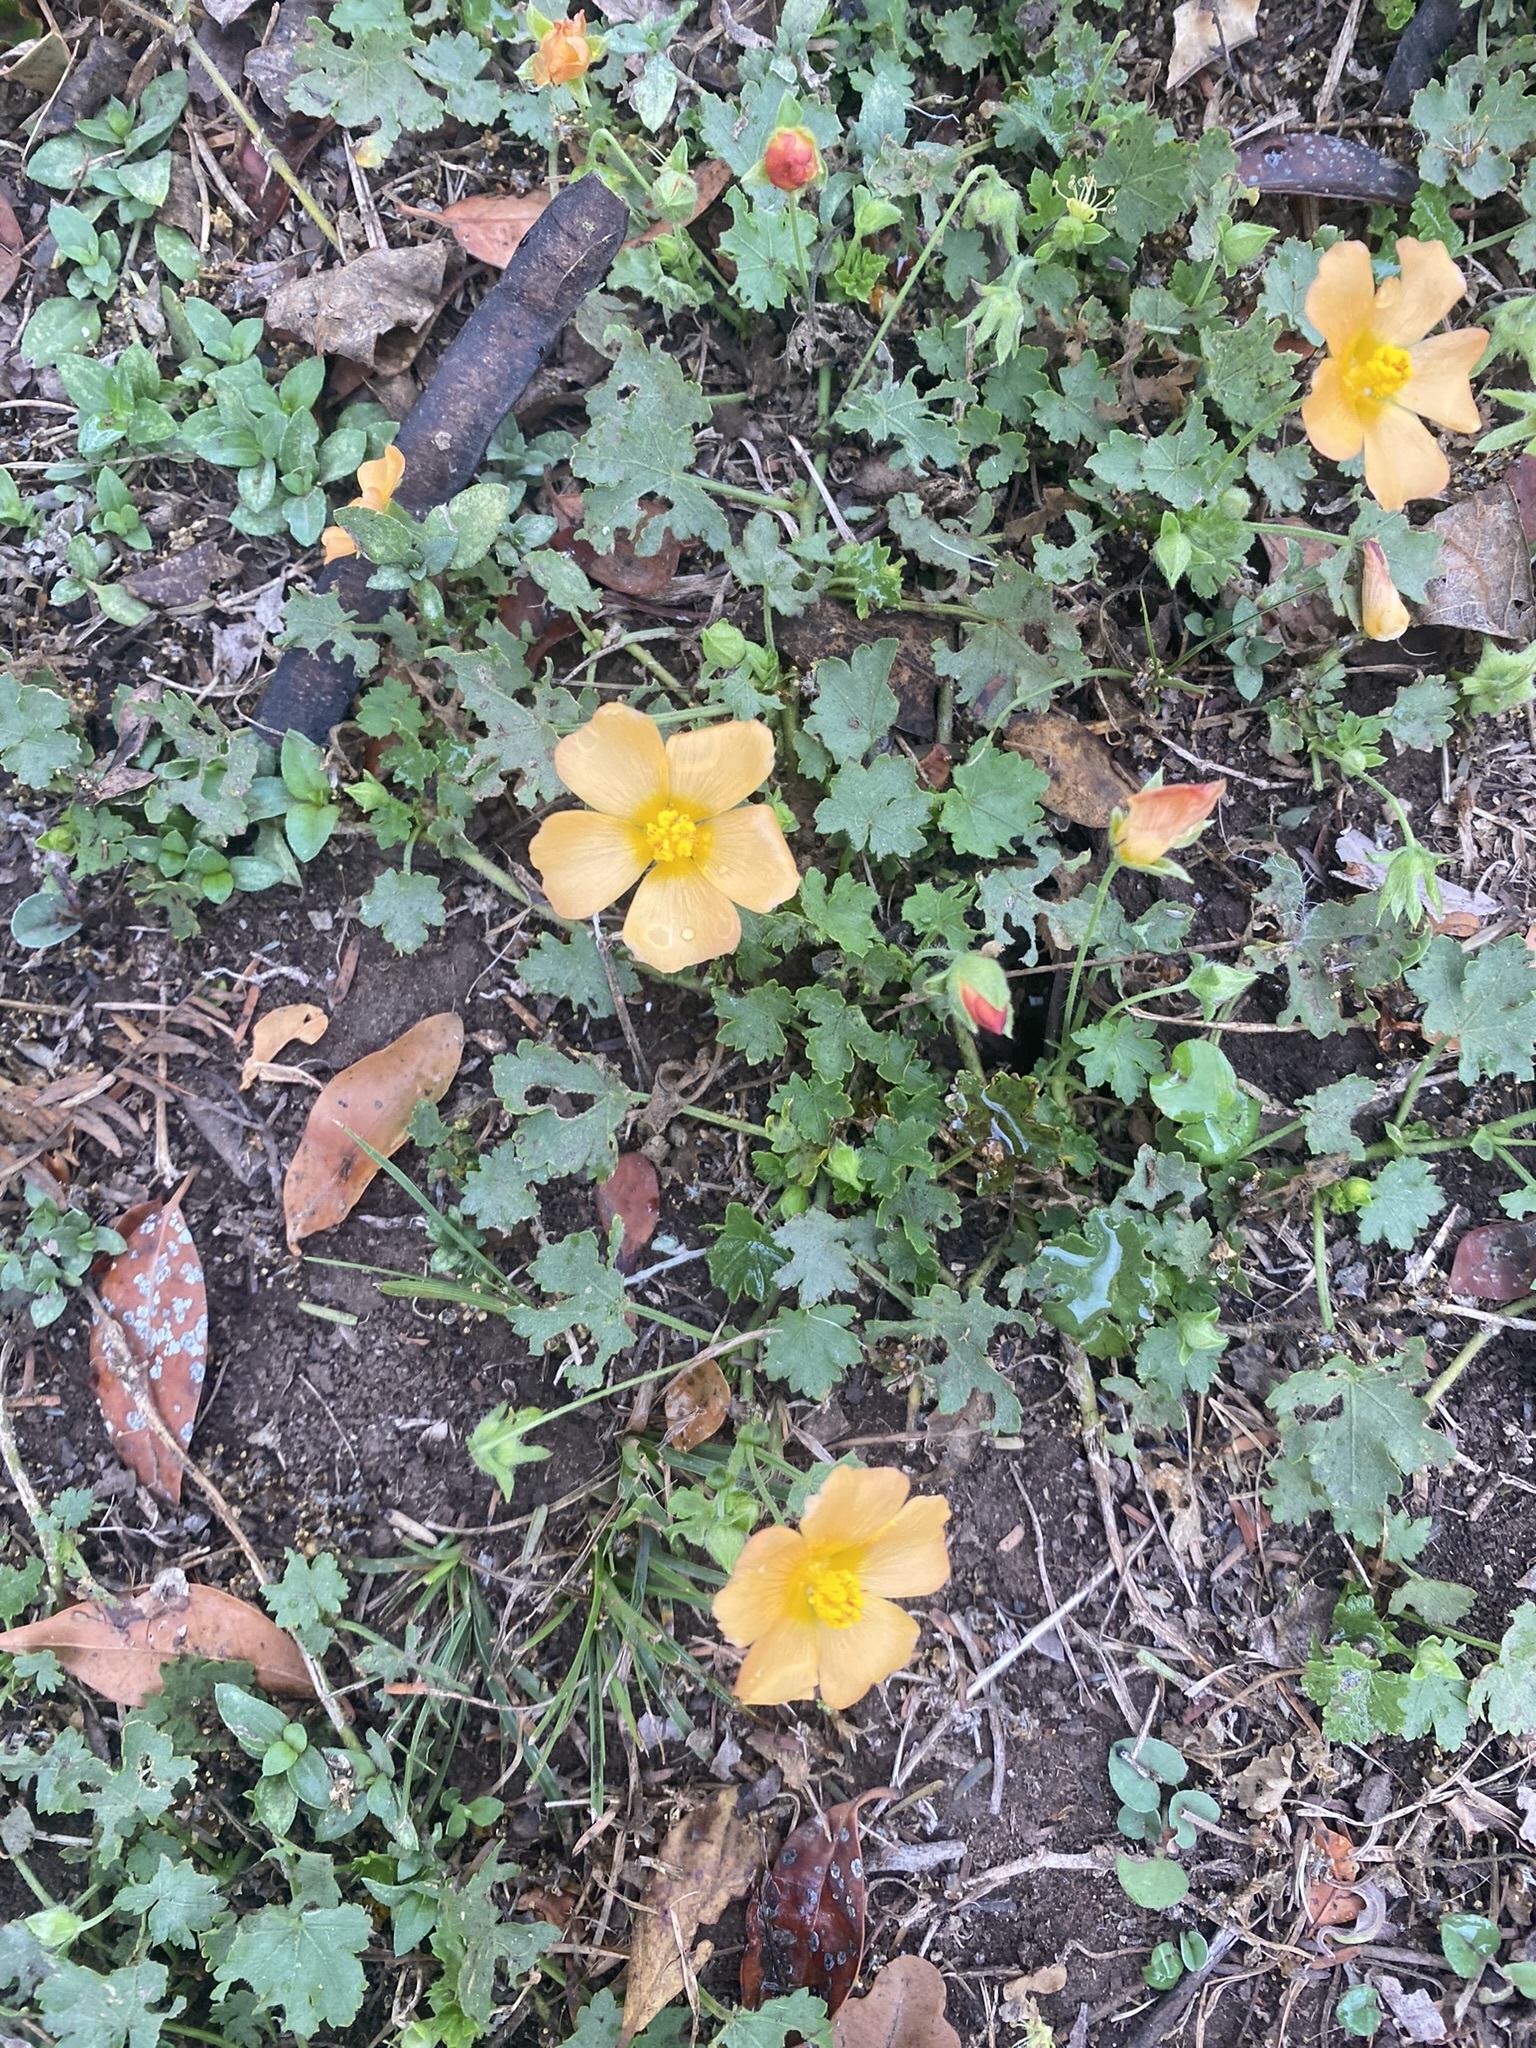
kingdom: Plantae
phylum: Tracheophyta
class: Magnoliopsida
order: Malvales
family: Malvaceae
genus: Modiolastrum
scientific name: Modiolastrum malvifolium
